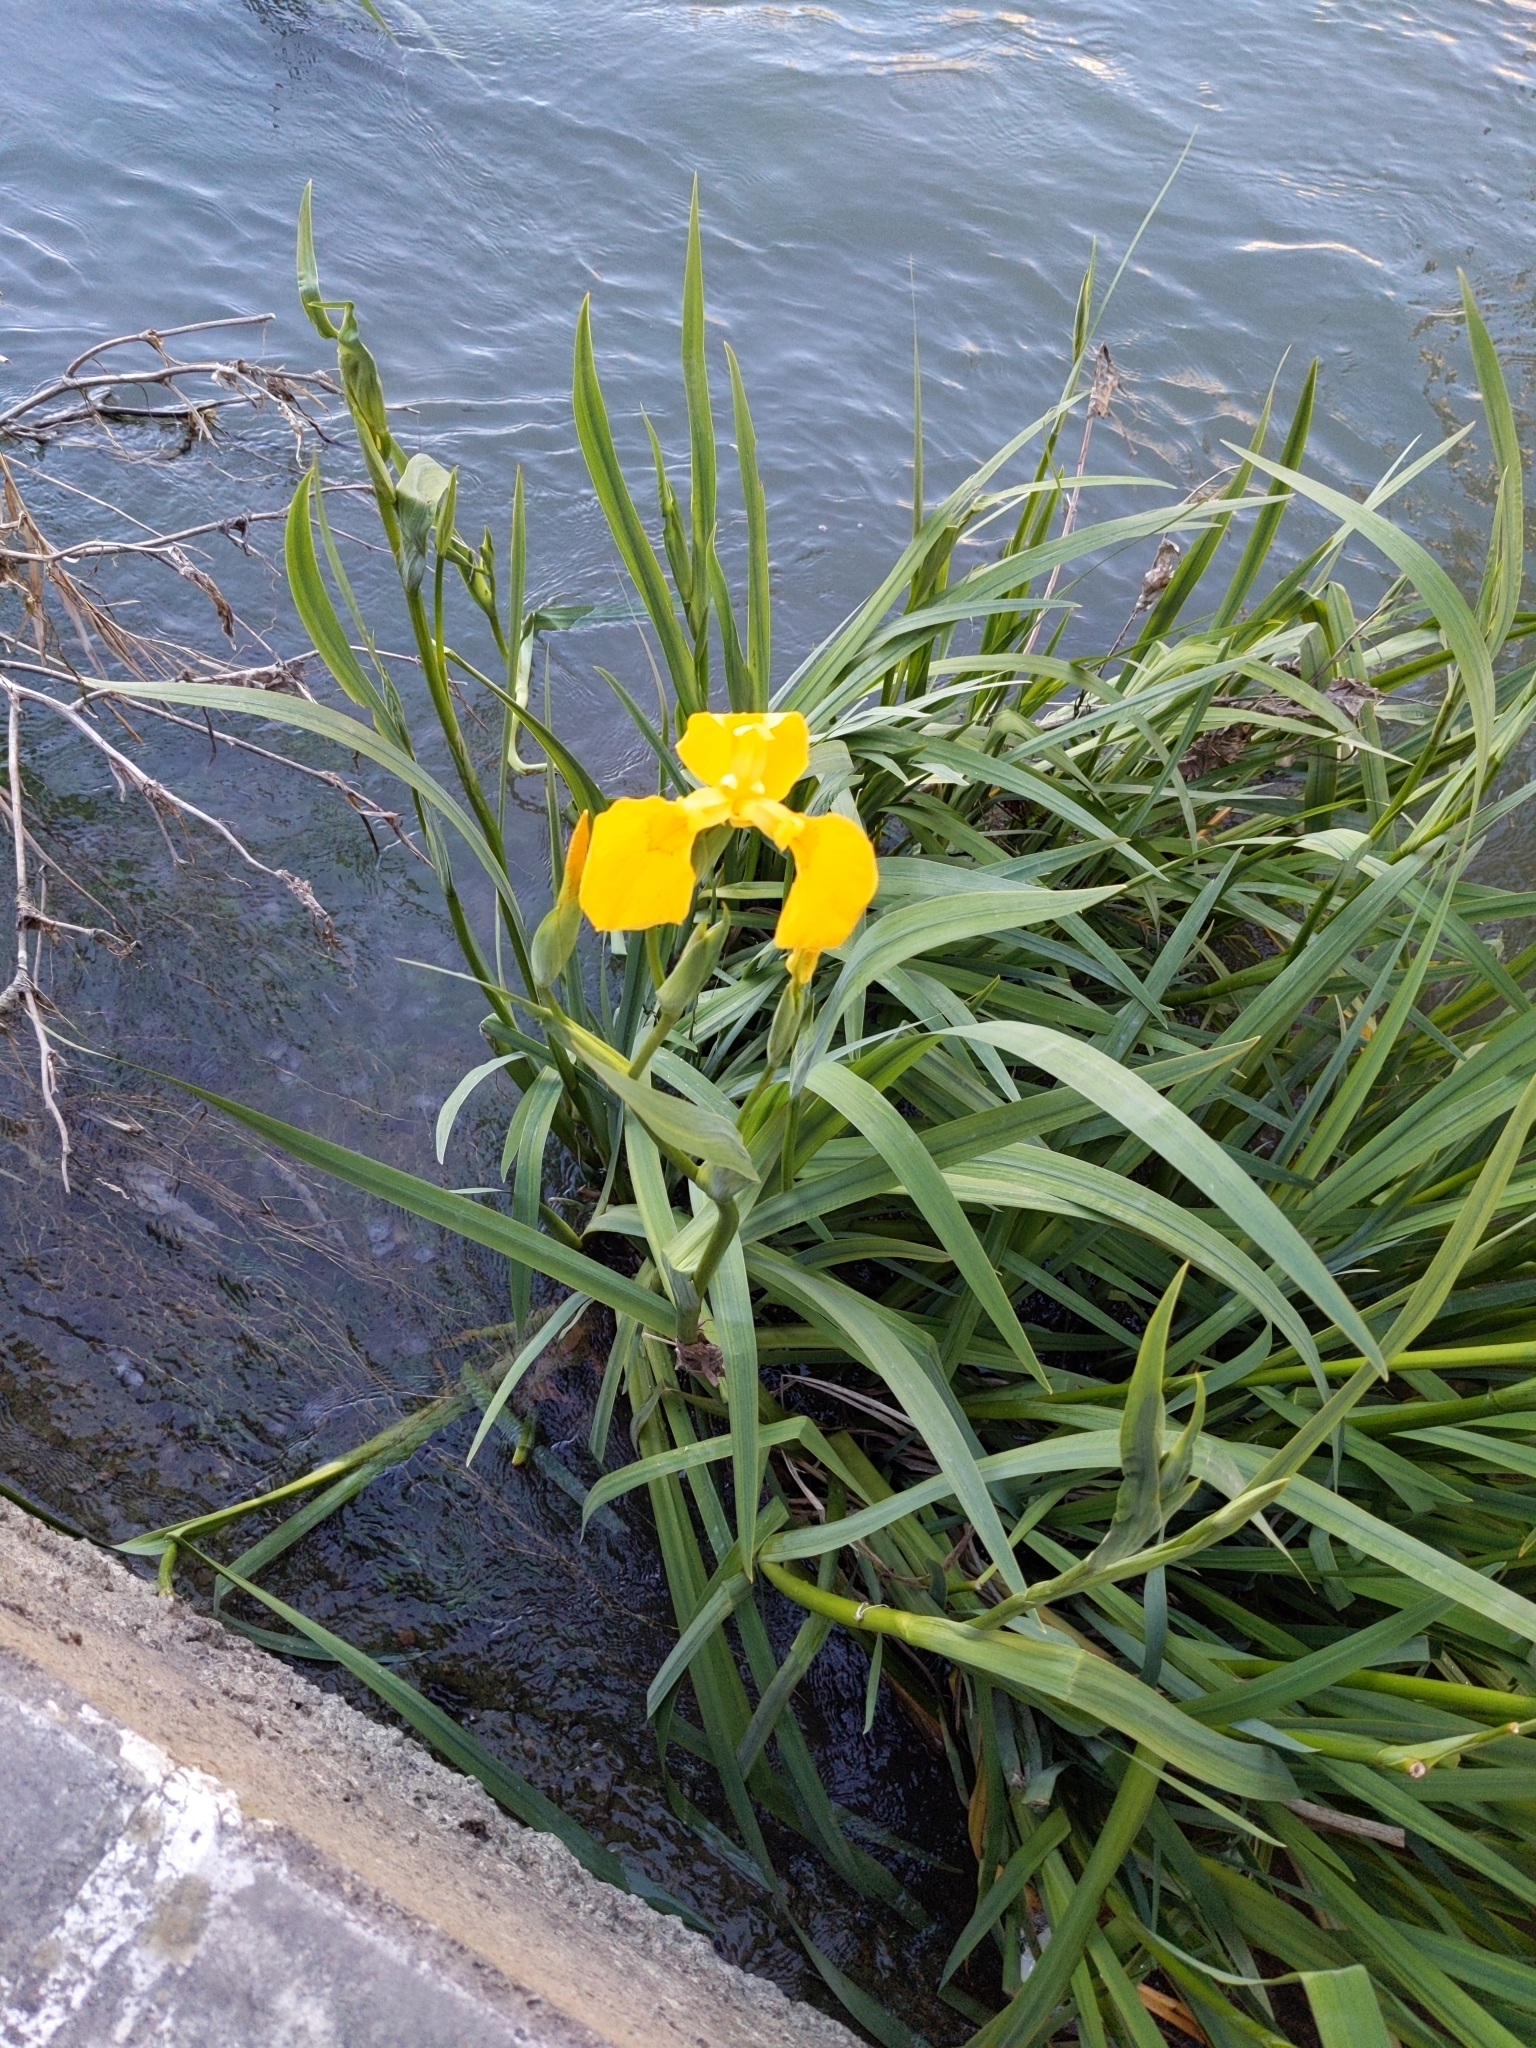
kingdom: Plantae
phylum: Tracheophyta
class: Liliopsida
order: Asparagales
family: Iridaceae
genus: Iris
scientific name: Iris pseudacorus
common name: Yellow flag
